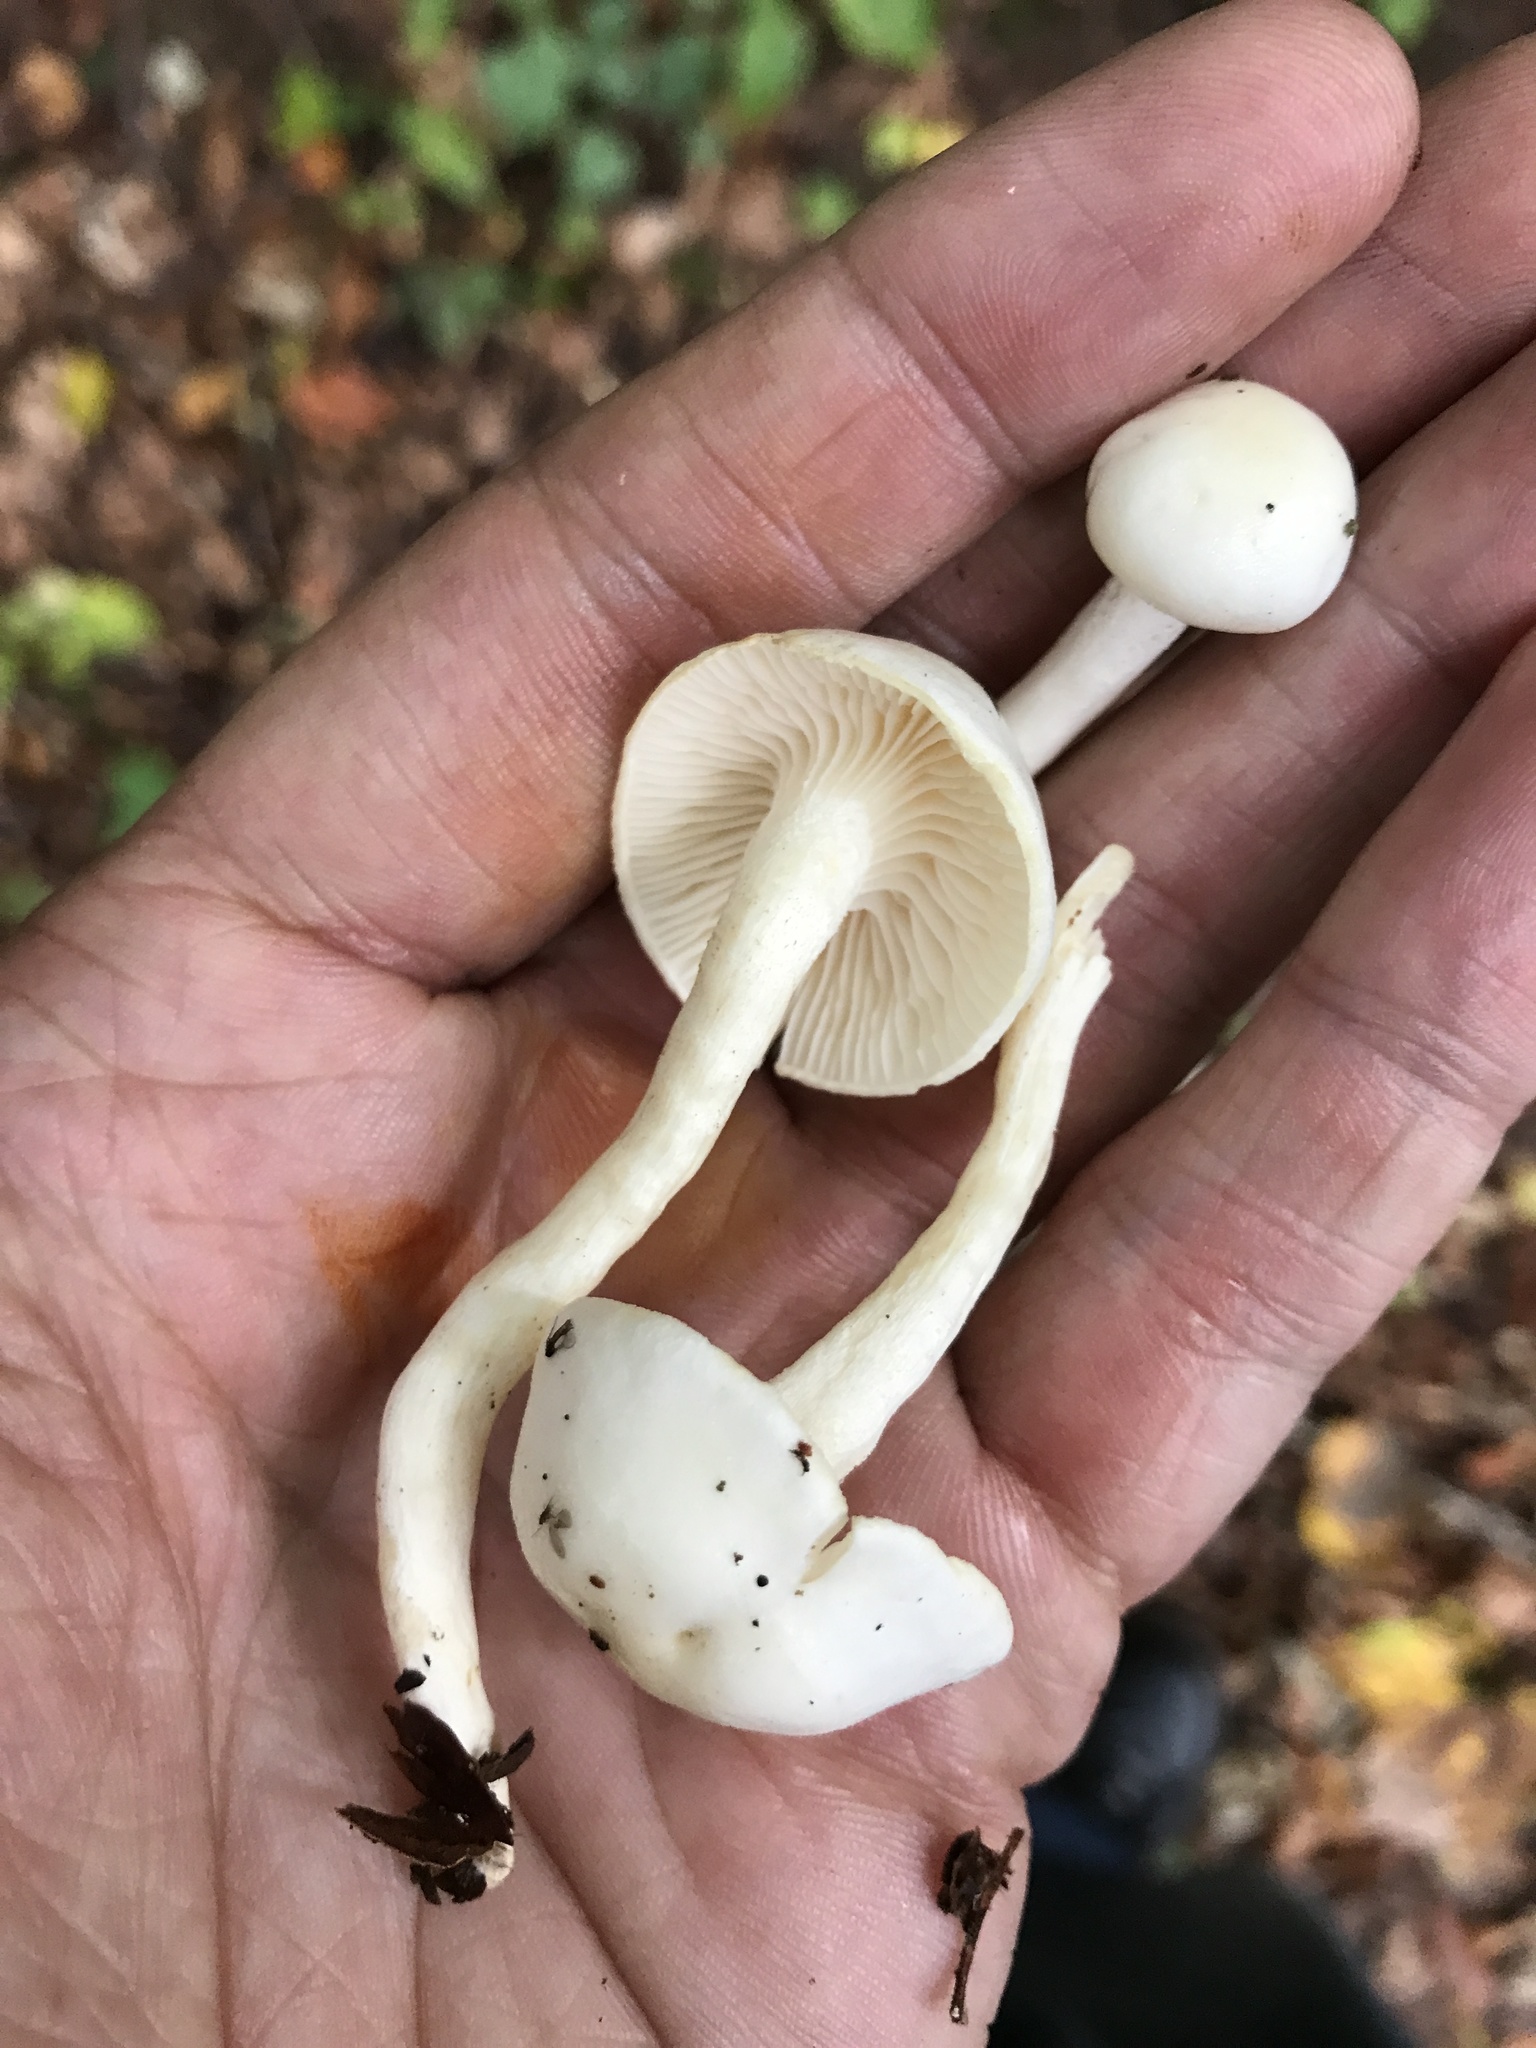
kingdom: Fungi
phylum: Basidiomycota
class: Agaricomycetes
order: Agaricales
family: Hygrophoraceae
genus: Hygrophorus
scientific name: Hygrophorus discoxanthus
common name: Yellowing woodwax
